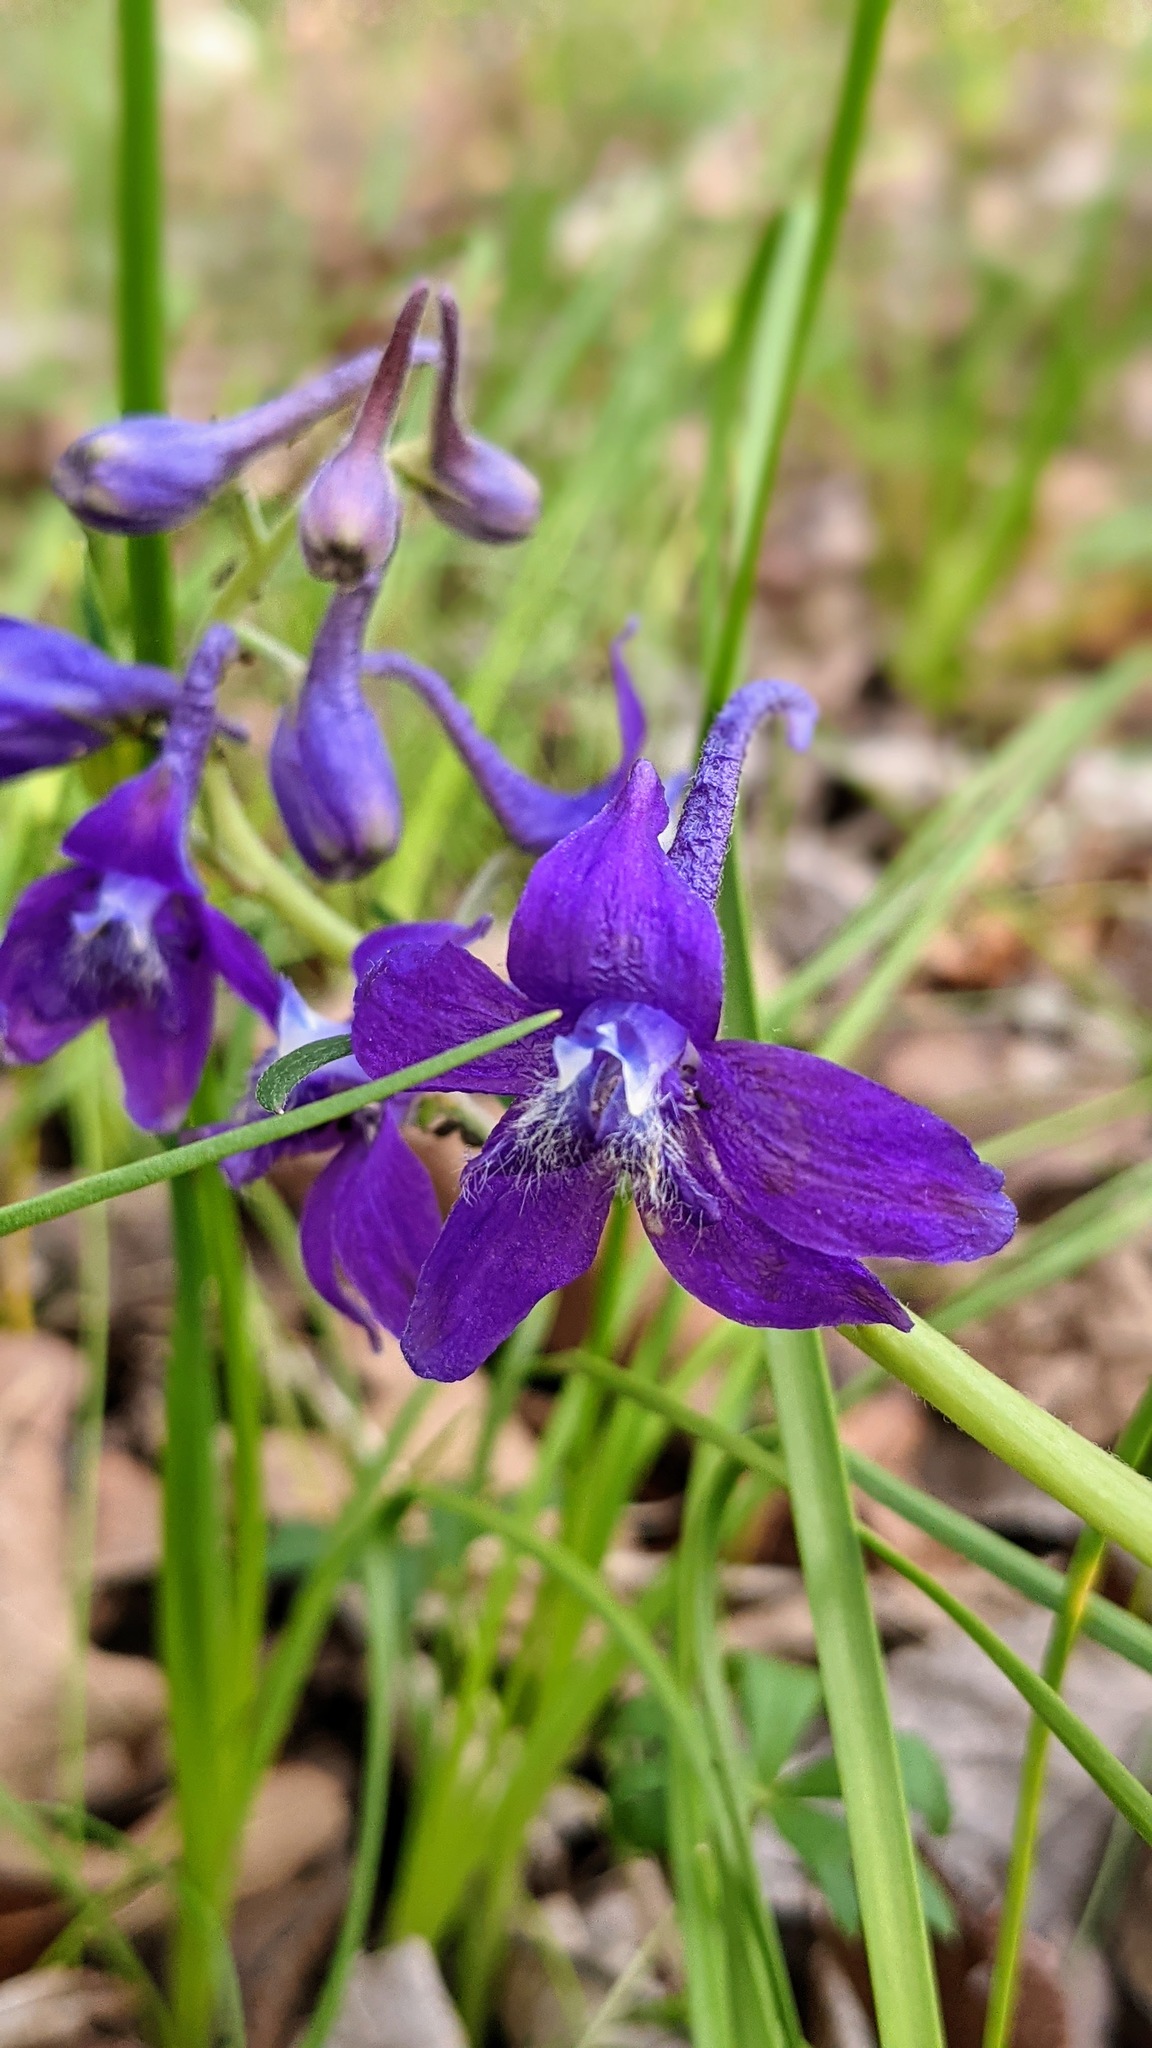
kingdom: Plantae
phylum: Tracheophyta
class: Magnoliopsida
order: Ranunculales
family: Ranunculaceae
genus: Delphinium
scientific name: Delphinium tricorne
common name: Dwarf larkspur
